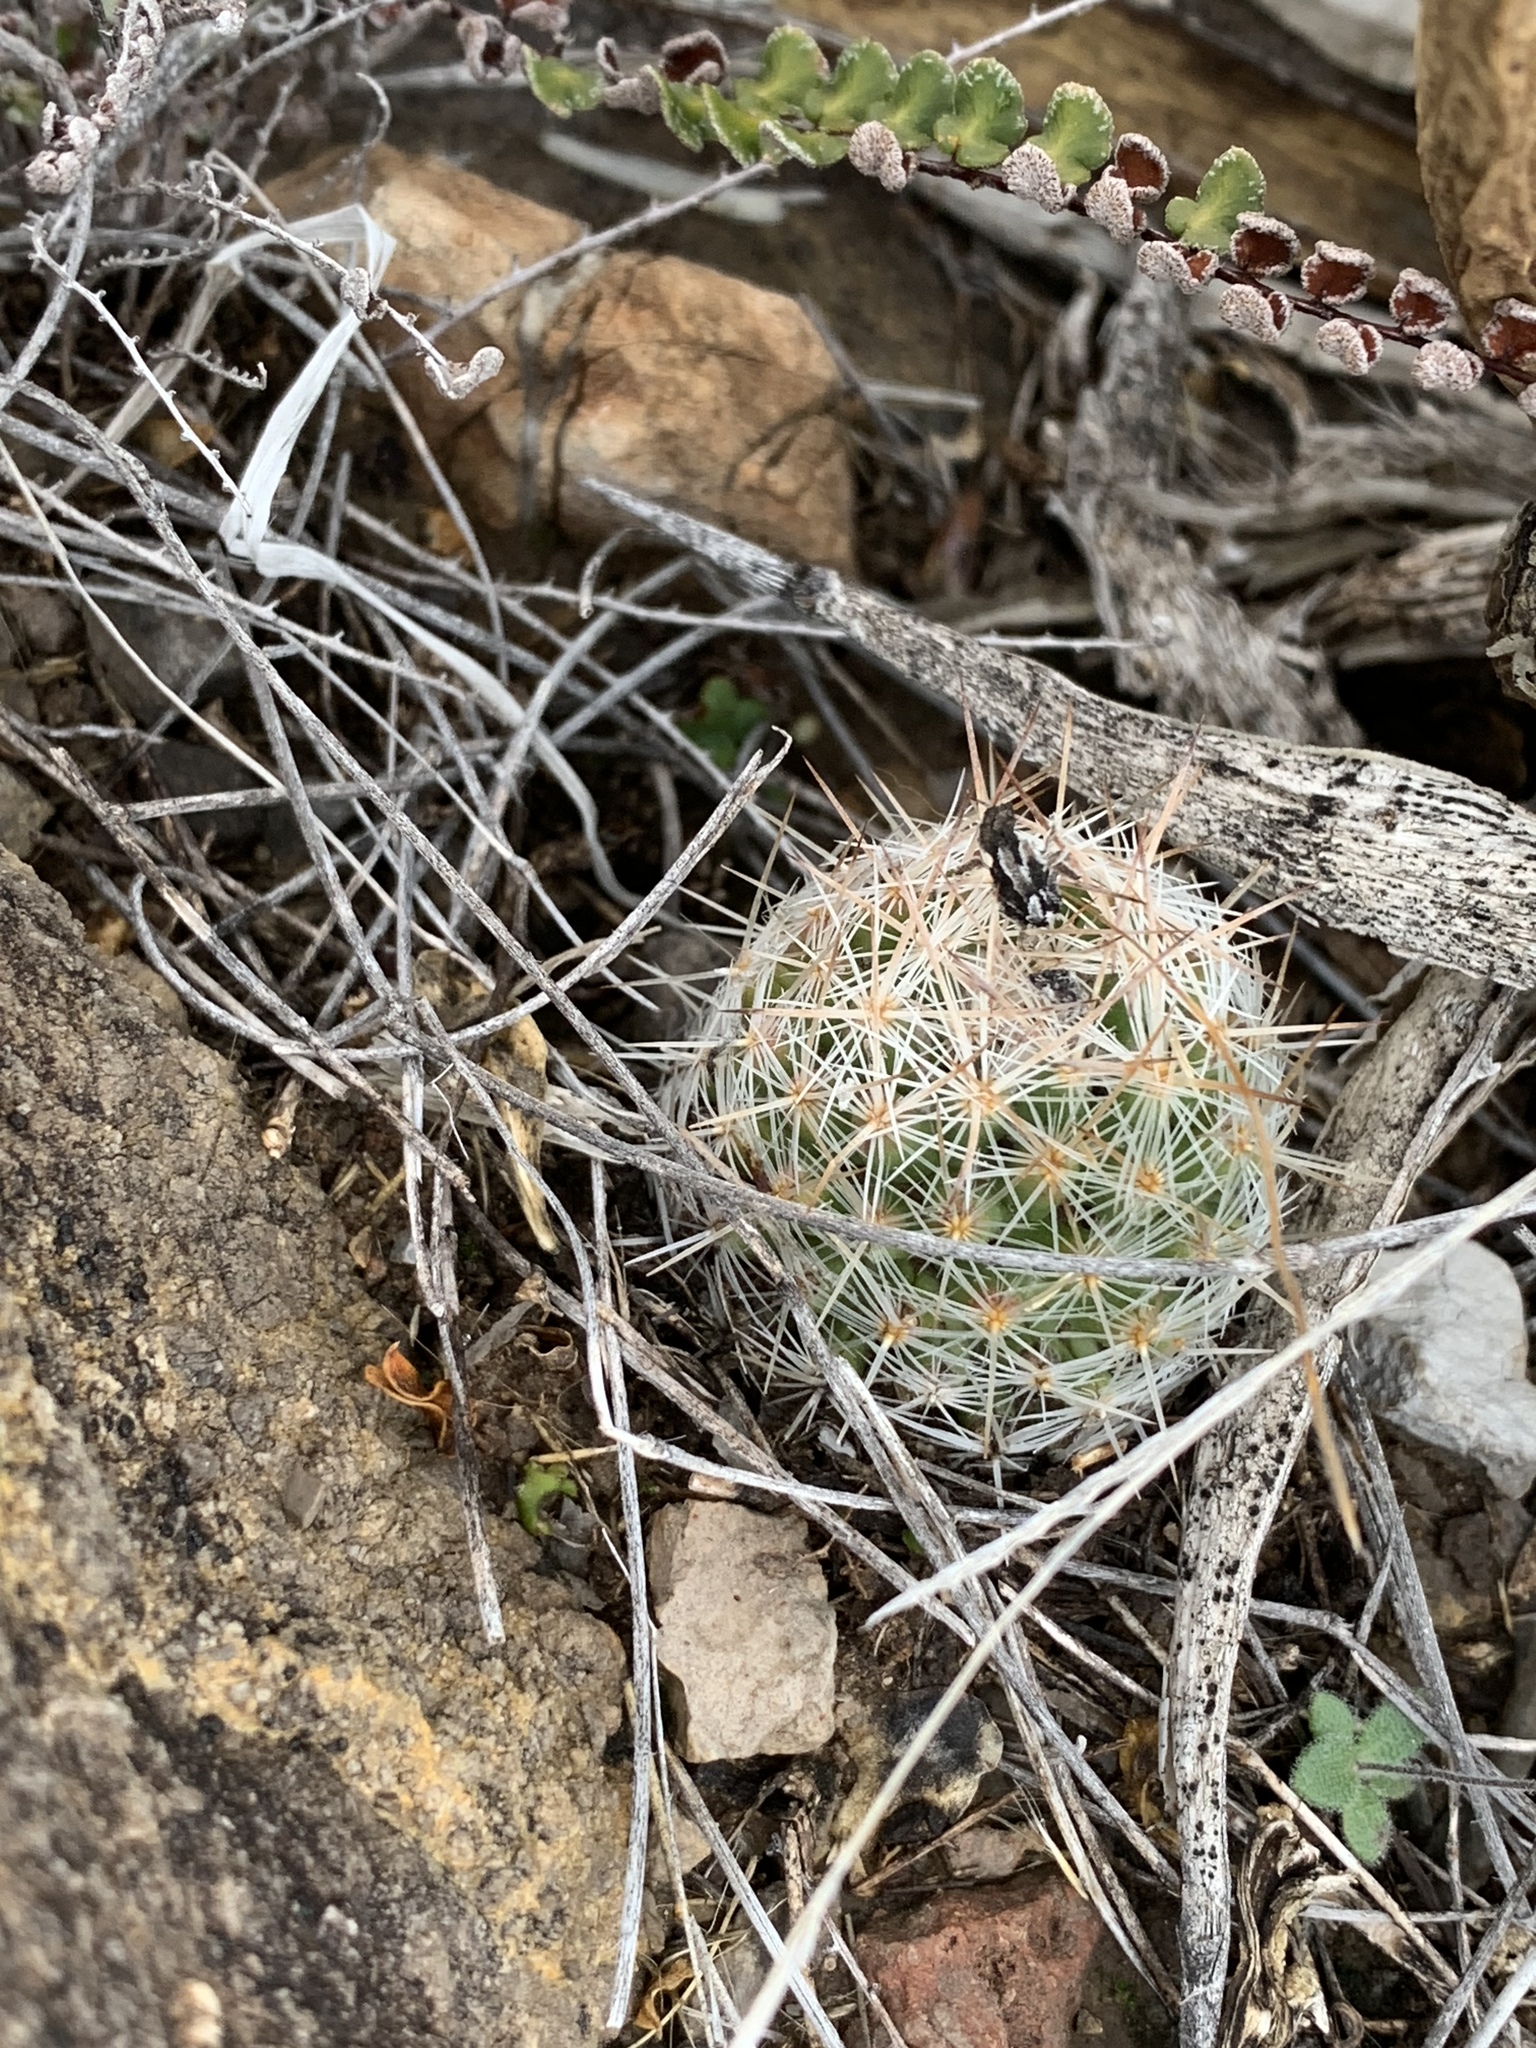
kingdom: Plantae
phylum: Tracheophyta
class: Magnoliopsida
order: Caryophyllales
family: Cactaceae
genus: Pelecyphora
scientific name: Pelecyphora tuberculosa
